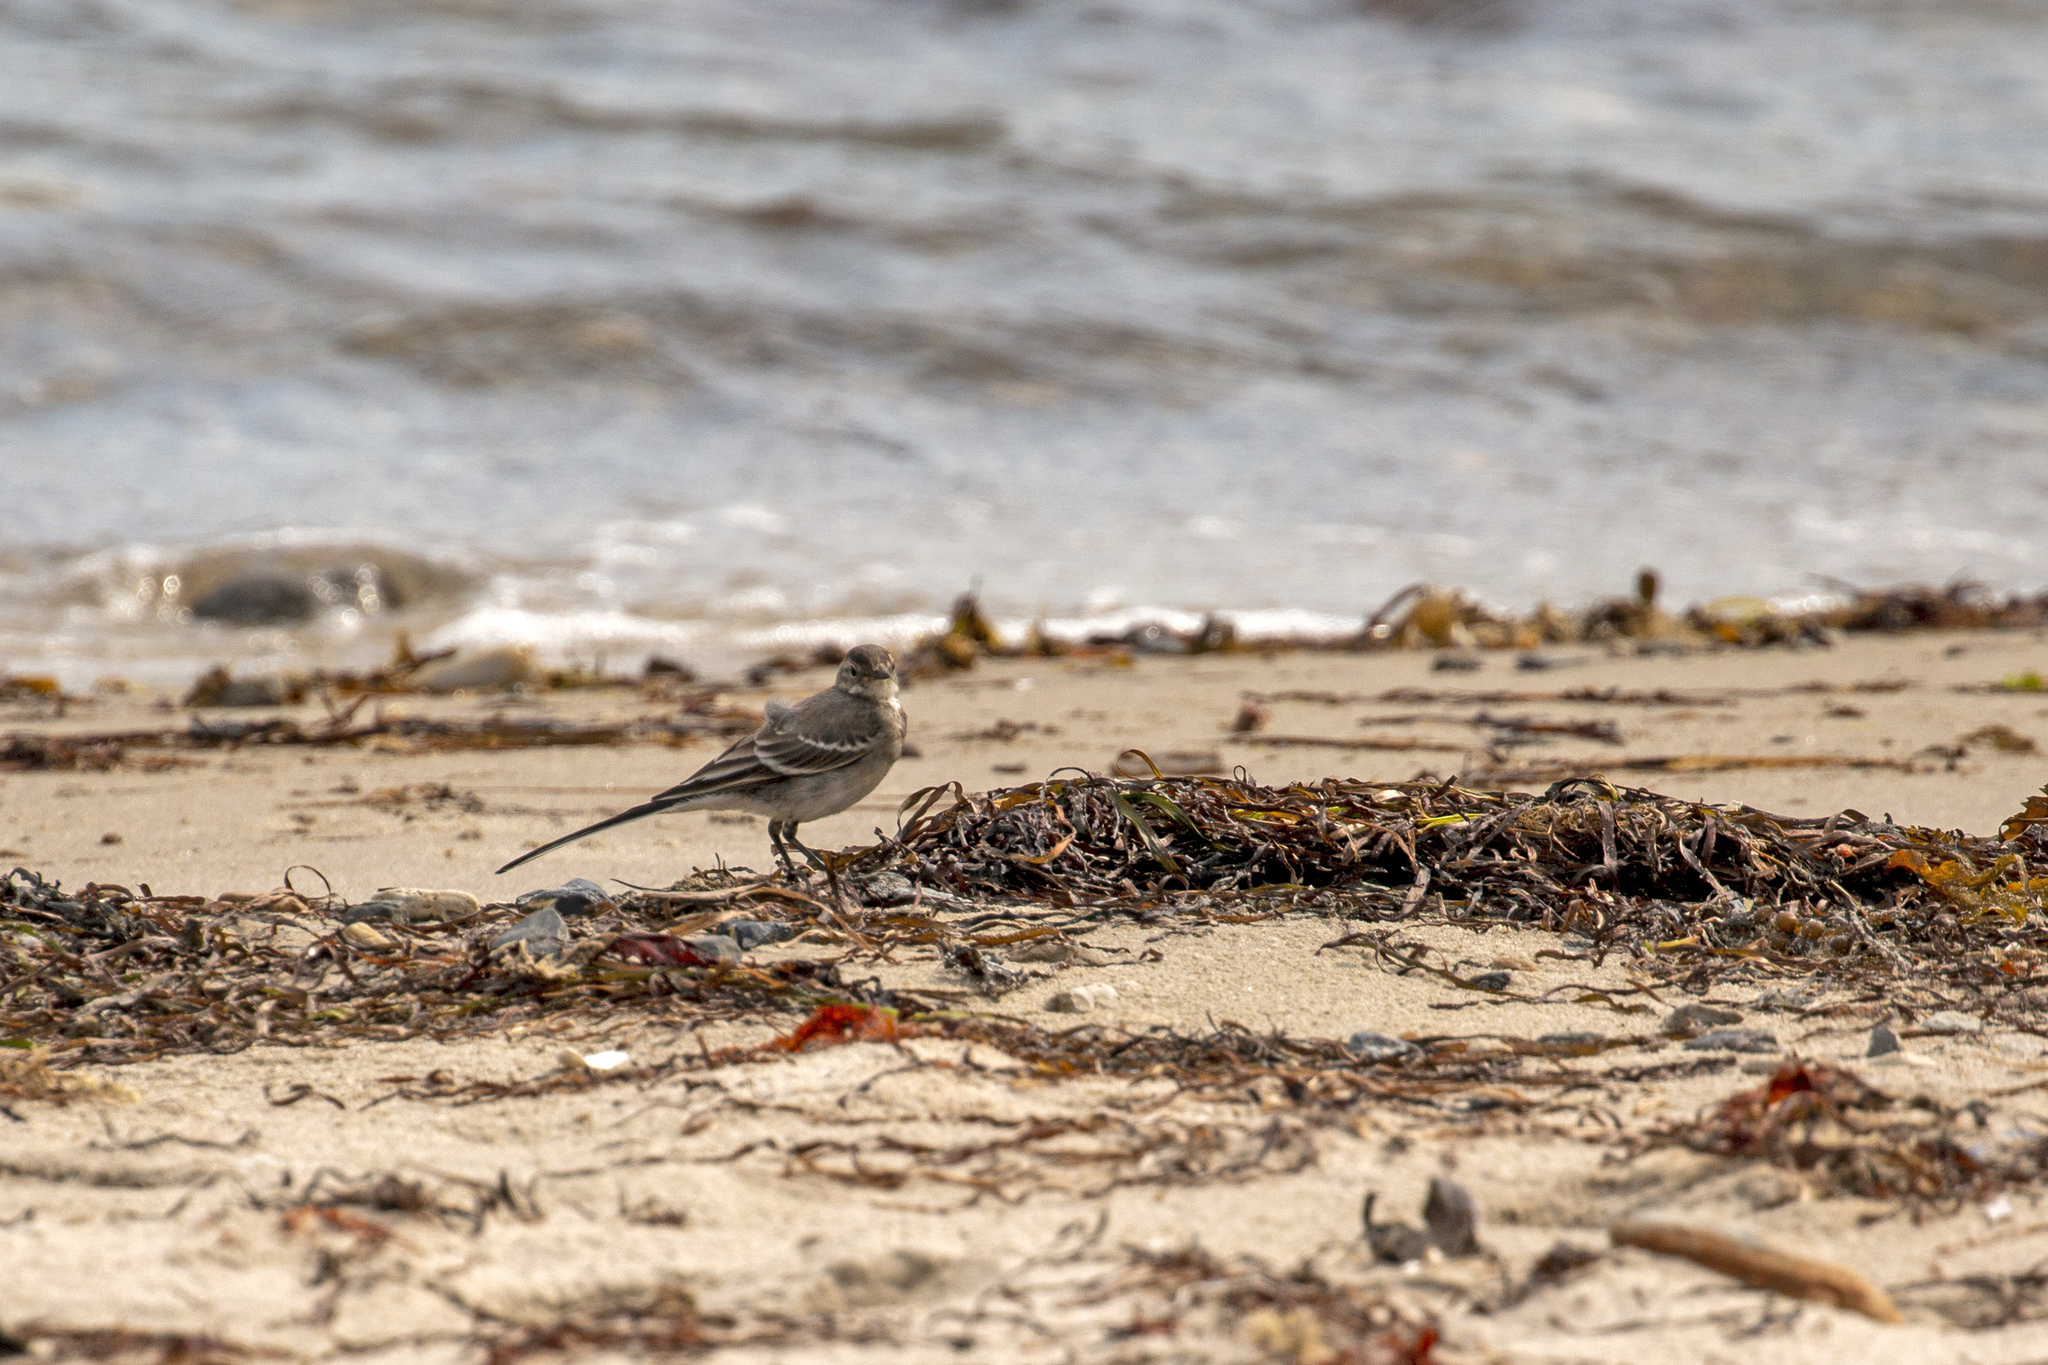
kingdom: Animalia
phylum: Chordata
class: Aves
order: Passeriformes
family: Motacillidae
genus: Motacilla
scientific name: Motacilla alba
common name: White wagtail
